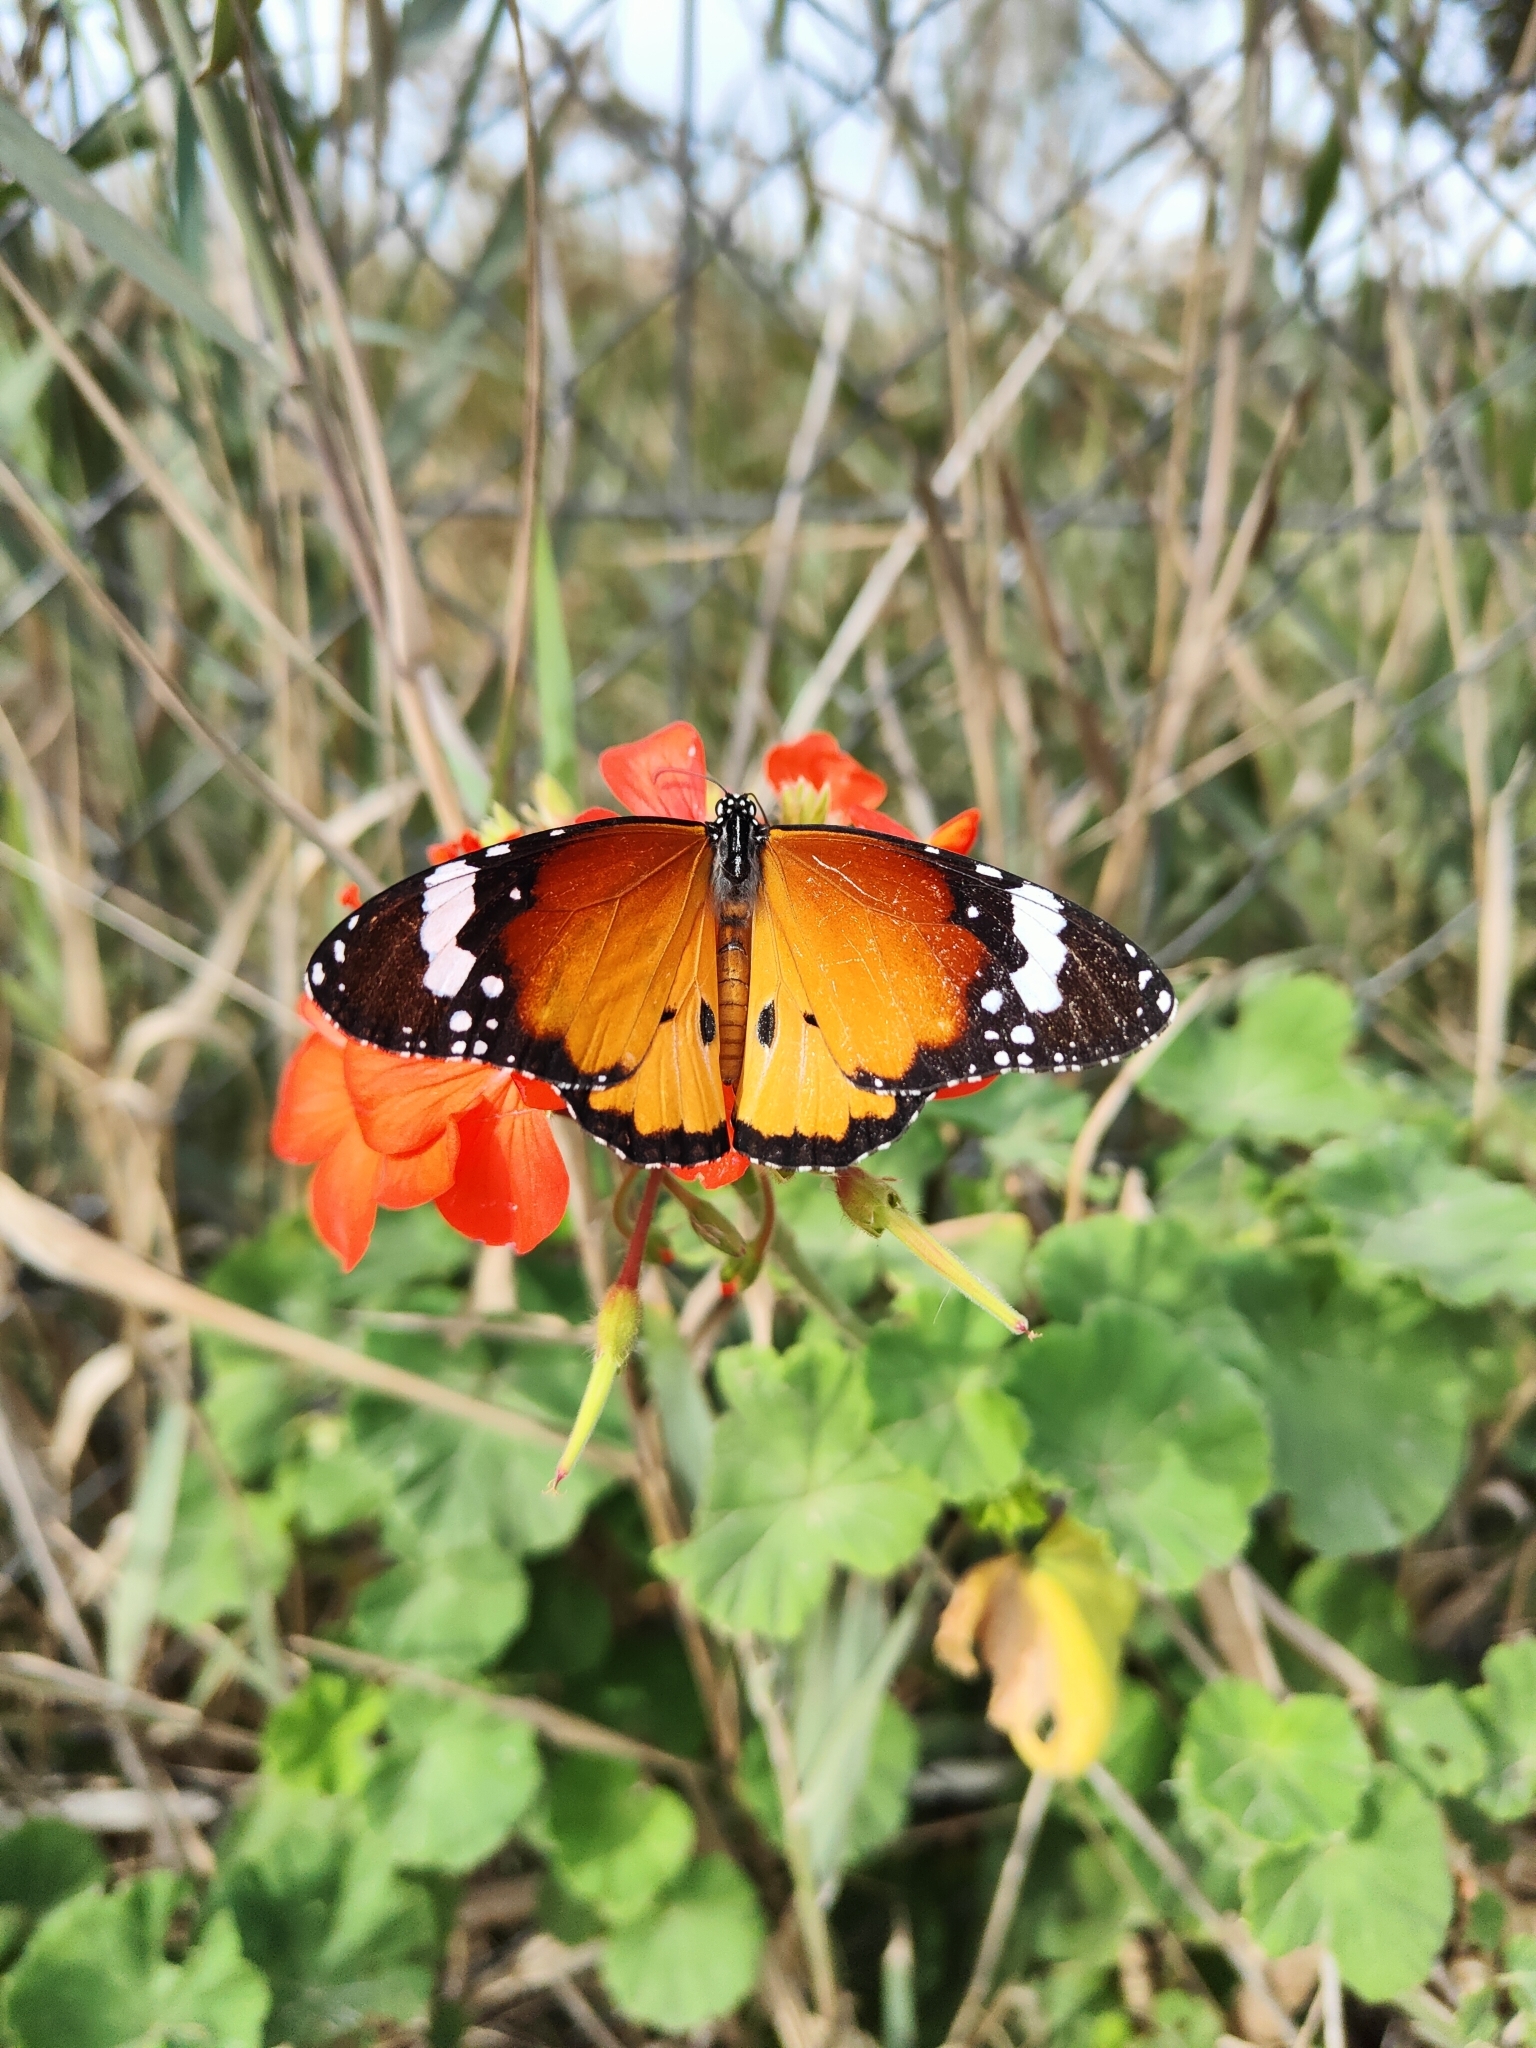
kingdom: Animalia
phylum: Arthropoda
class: Insecta
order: Lepidoptera
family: Nymphalidae
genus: Danaus
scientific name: Danaus chrysippus
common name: Plain tiger
